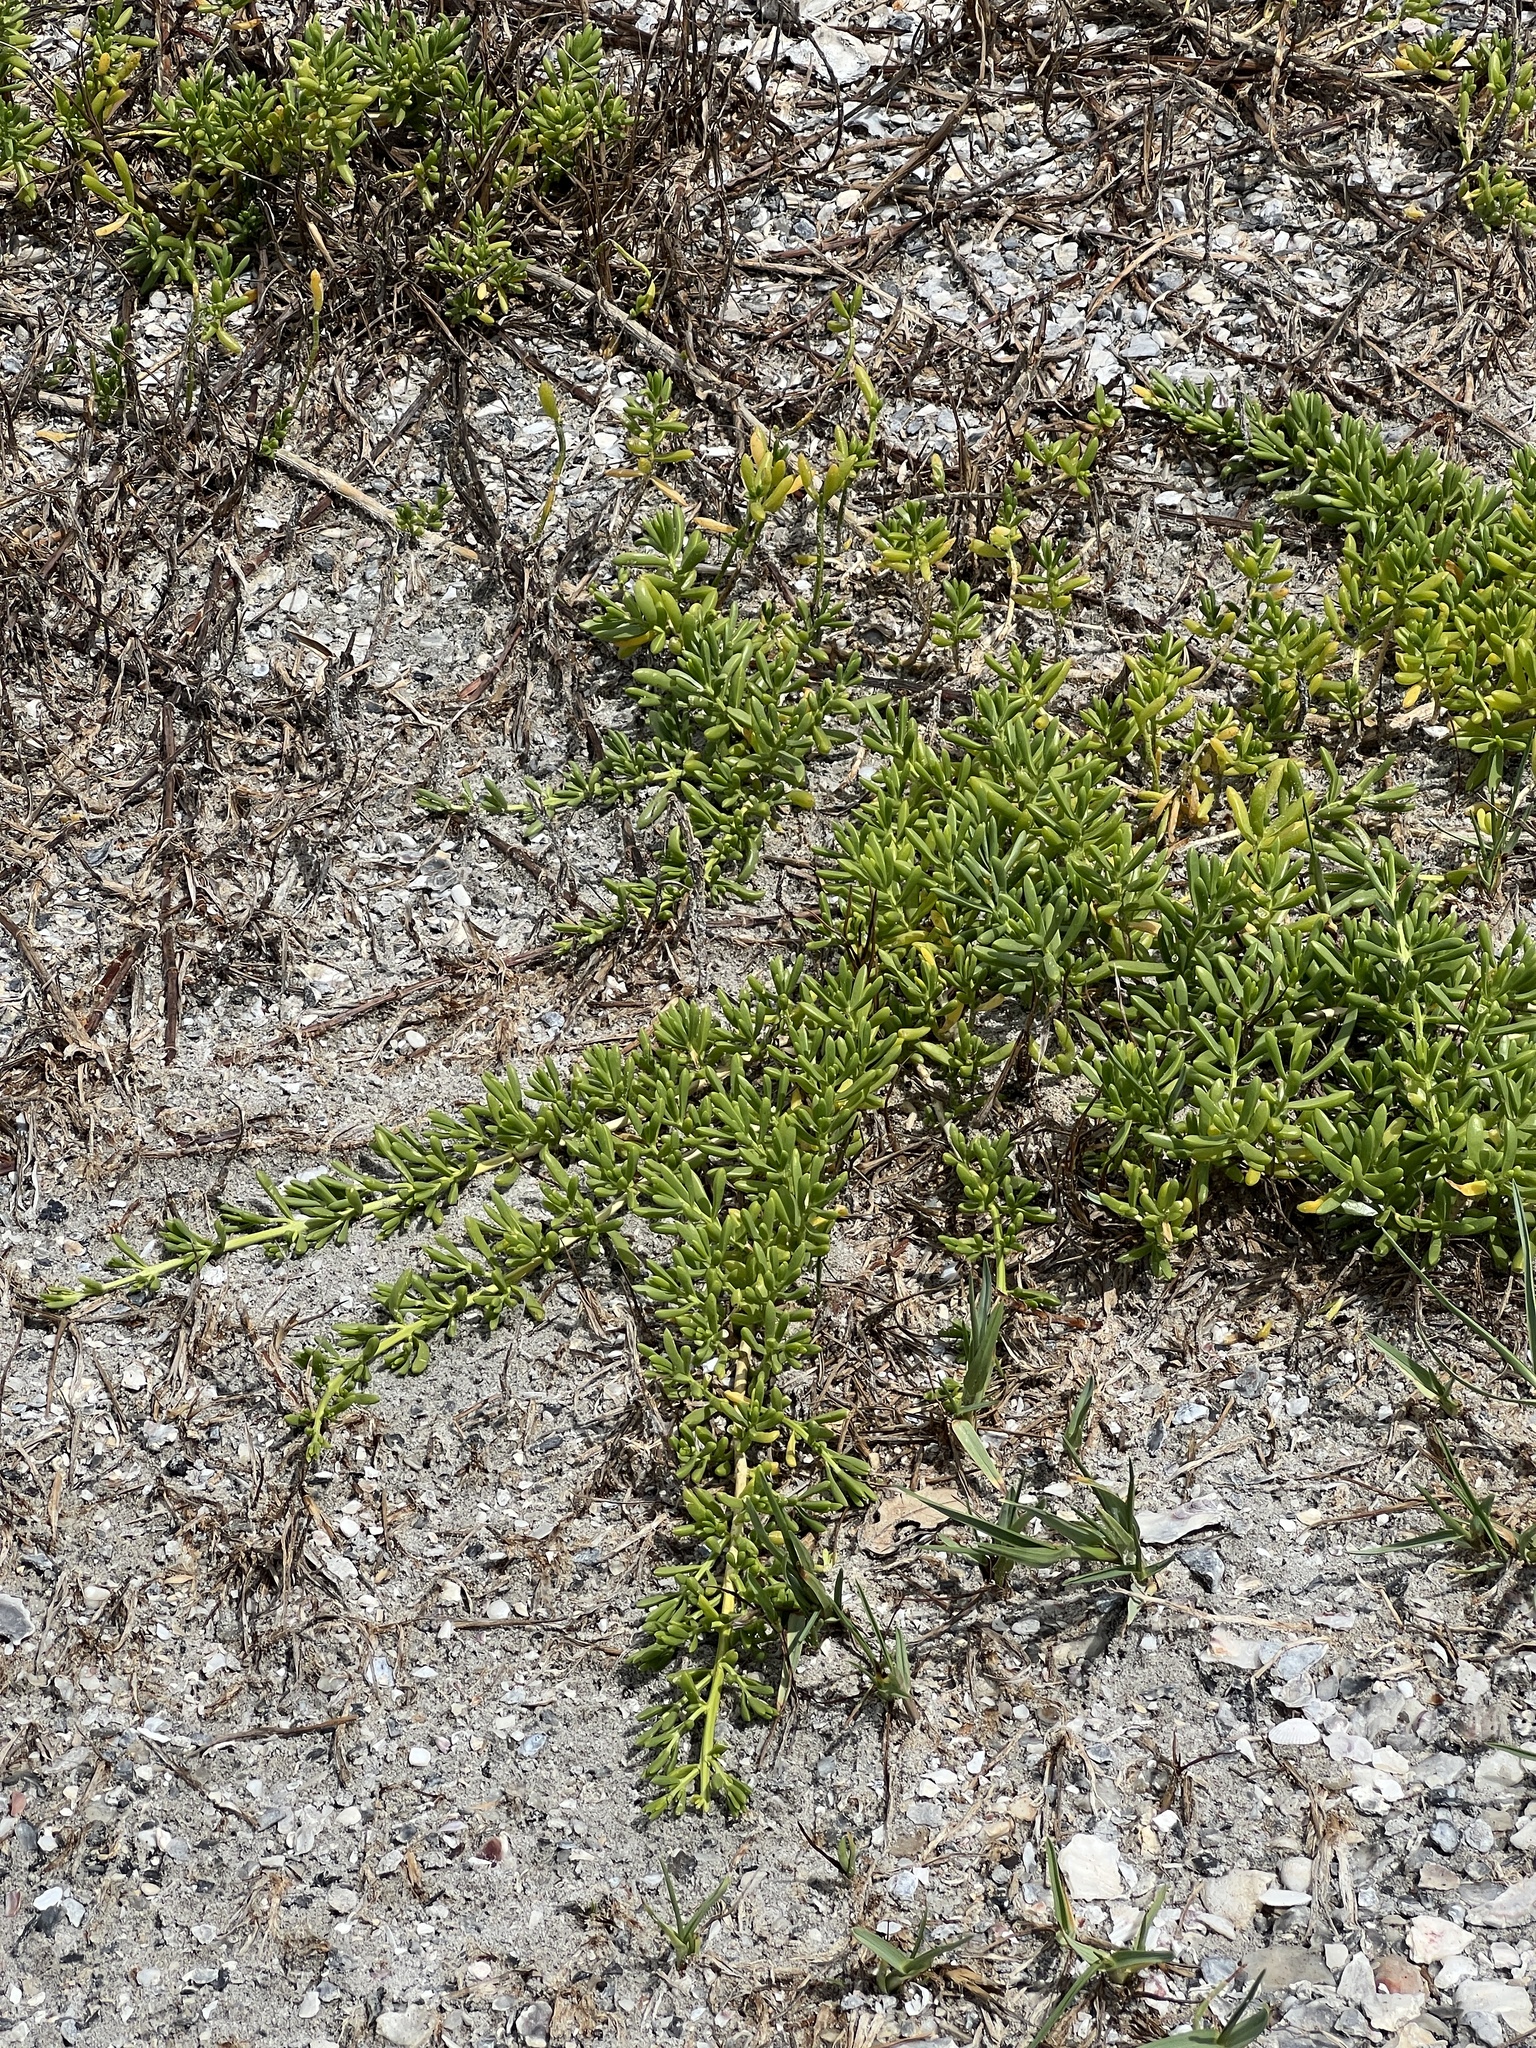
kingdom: Plantae
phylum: Tracheophyta
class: Magnoliopsida
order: Brassicales
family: Bataceae
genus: Batis
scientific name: Batis maritima
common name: Turtleweed
